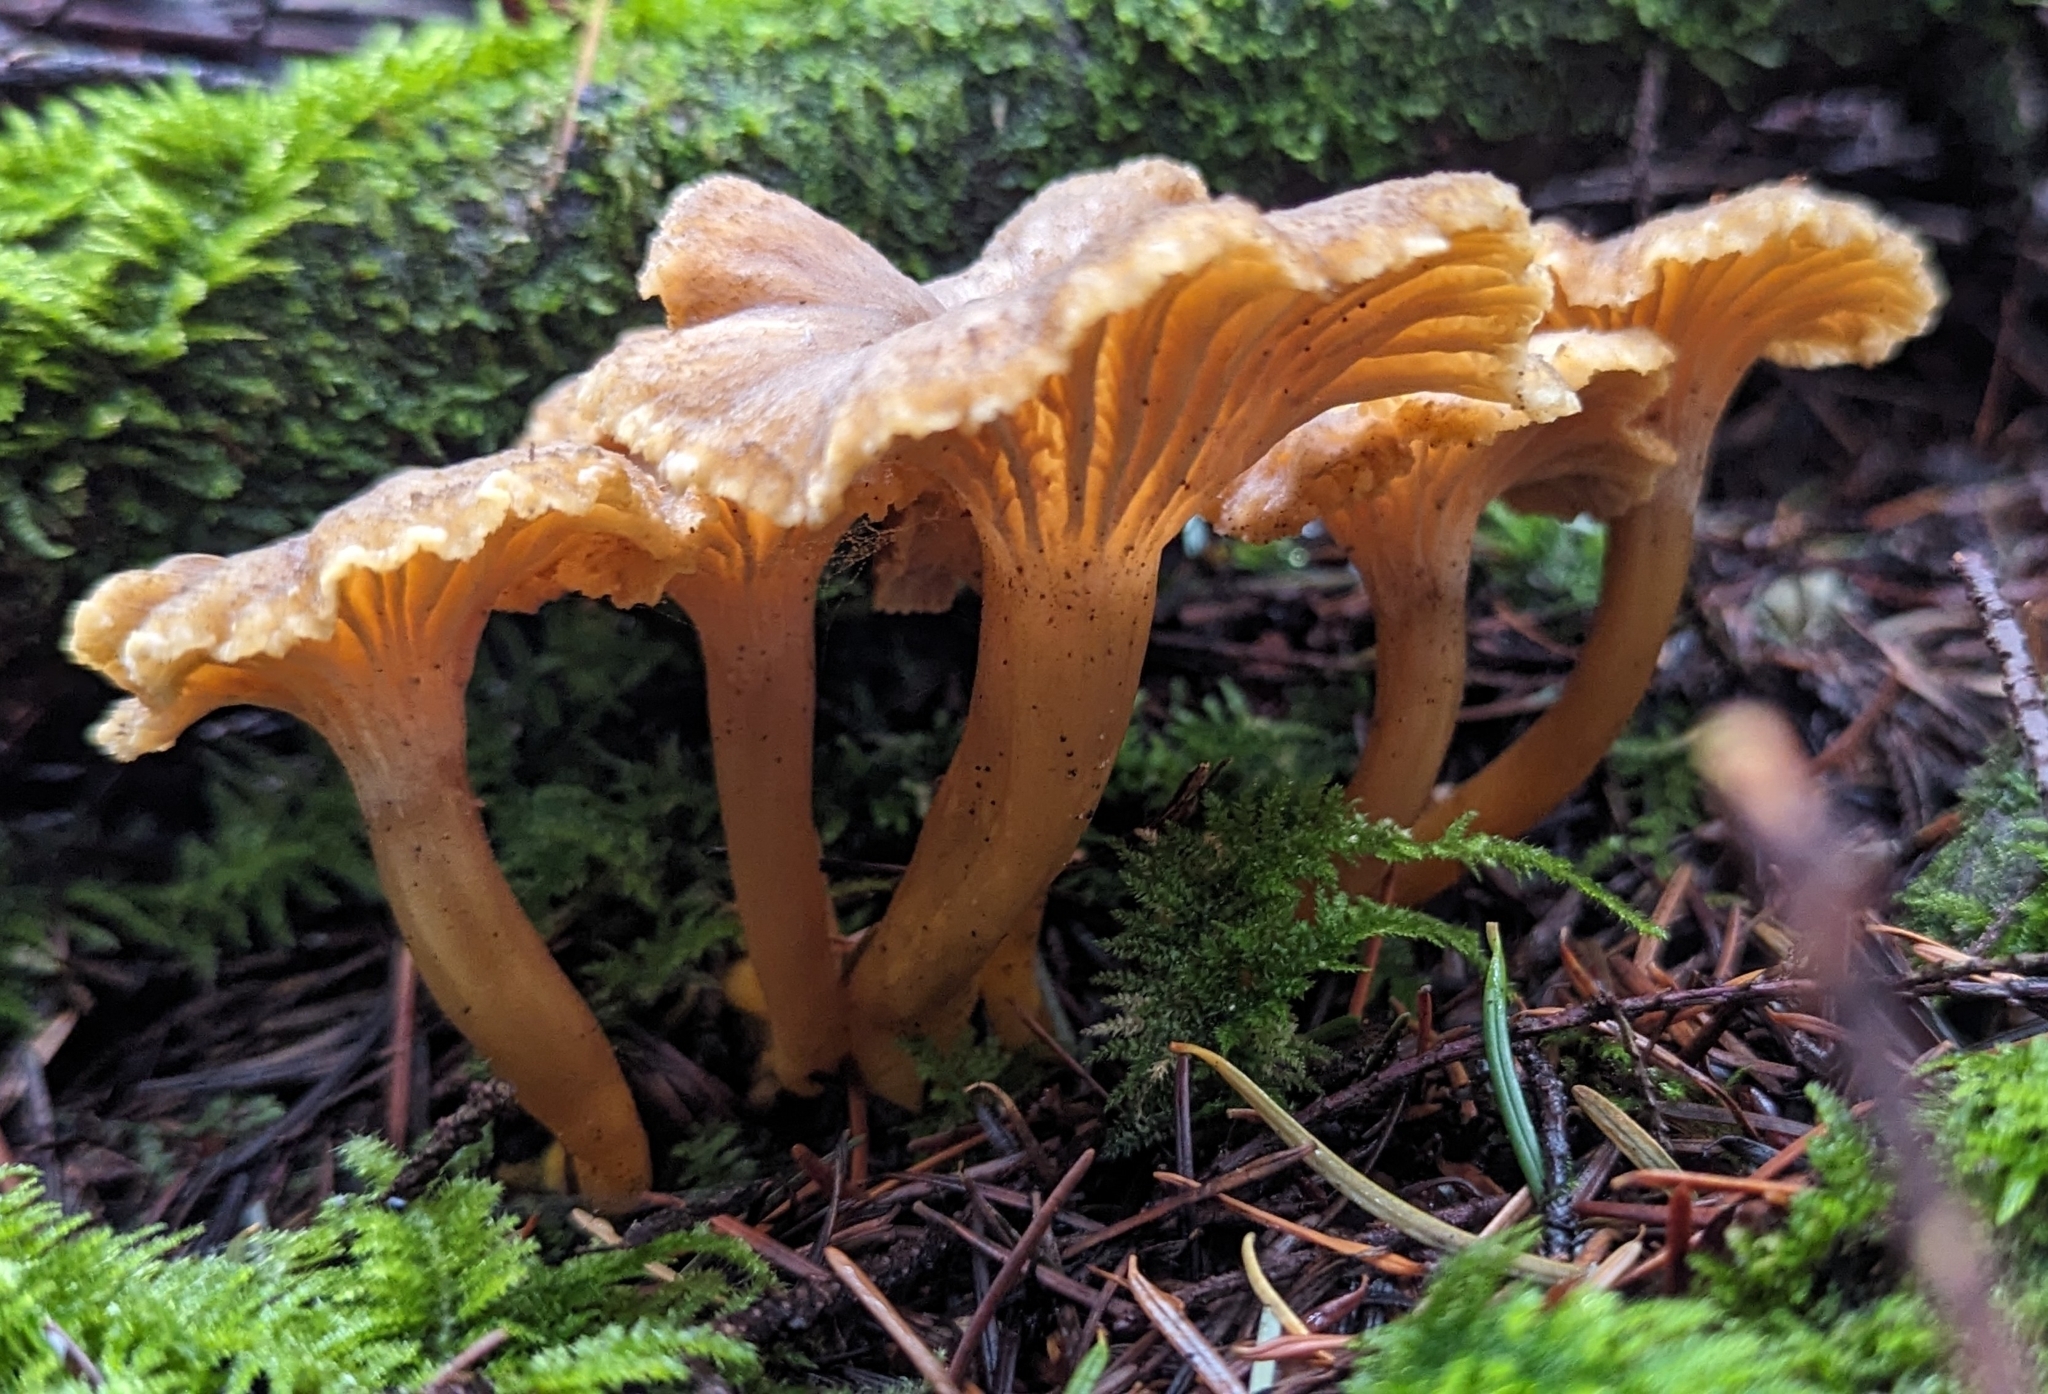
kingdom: Fungi
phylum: Basidiomycota
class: Agaricomycetes
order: Cantharellales
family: Hydnaceae
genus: Craterellus
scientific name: Craterellus tubaeformis
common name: Yellowfoot
